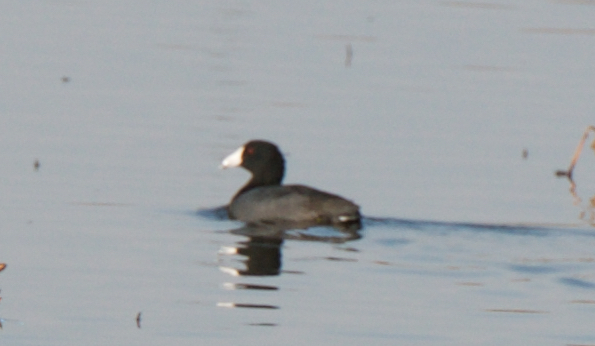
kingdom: Animalia
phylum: Chordata
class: Aves
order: Gruiformes
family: Rallidae
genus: Fulica
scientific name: Fulica americana
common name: American coot
